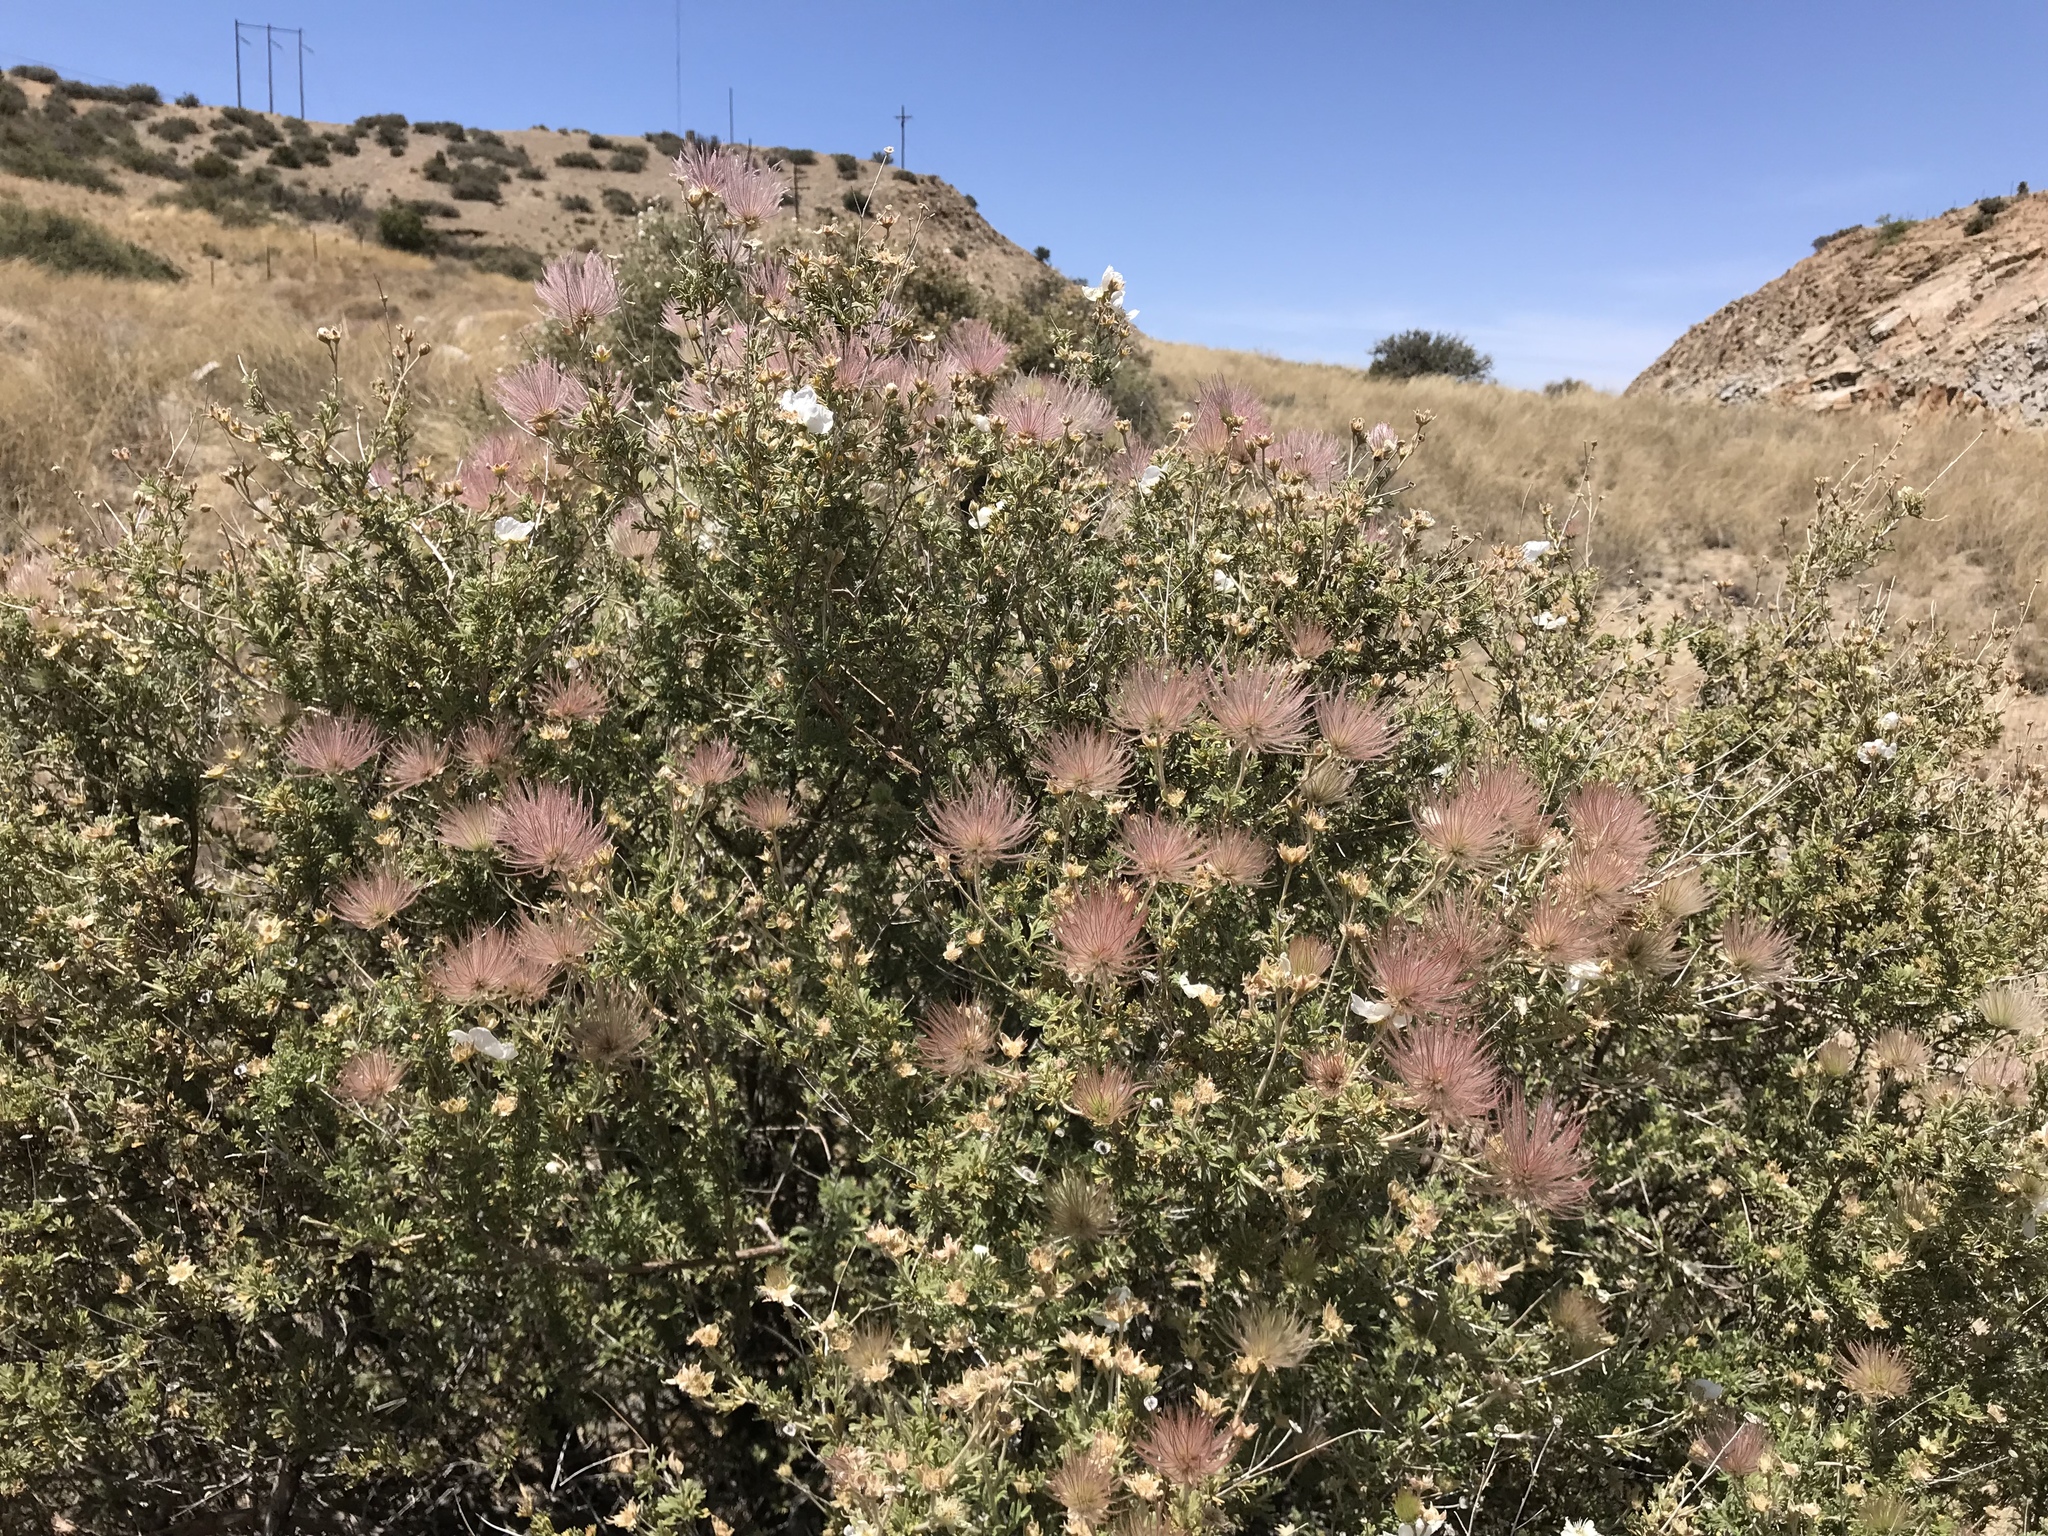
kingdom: Plantae
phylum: Tracheophyta
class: Magnoliopsida
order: Rosales
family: Rosaceae
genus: Fallugia
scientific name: Fallugia paradoxa
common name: Apache-plume
